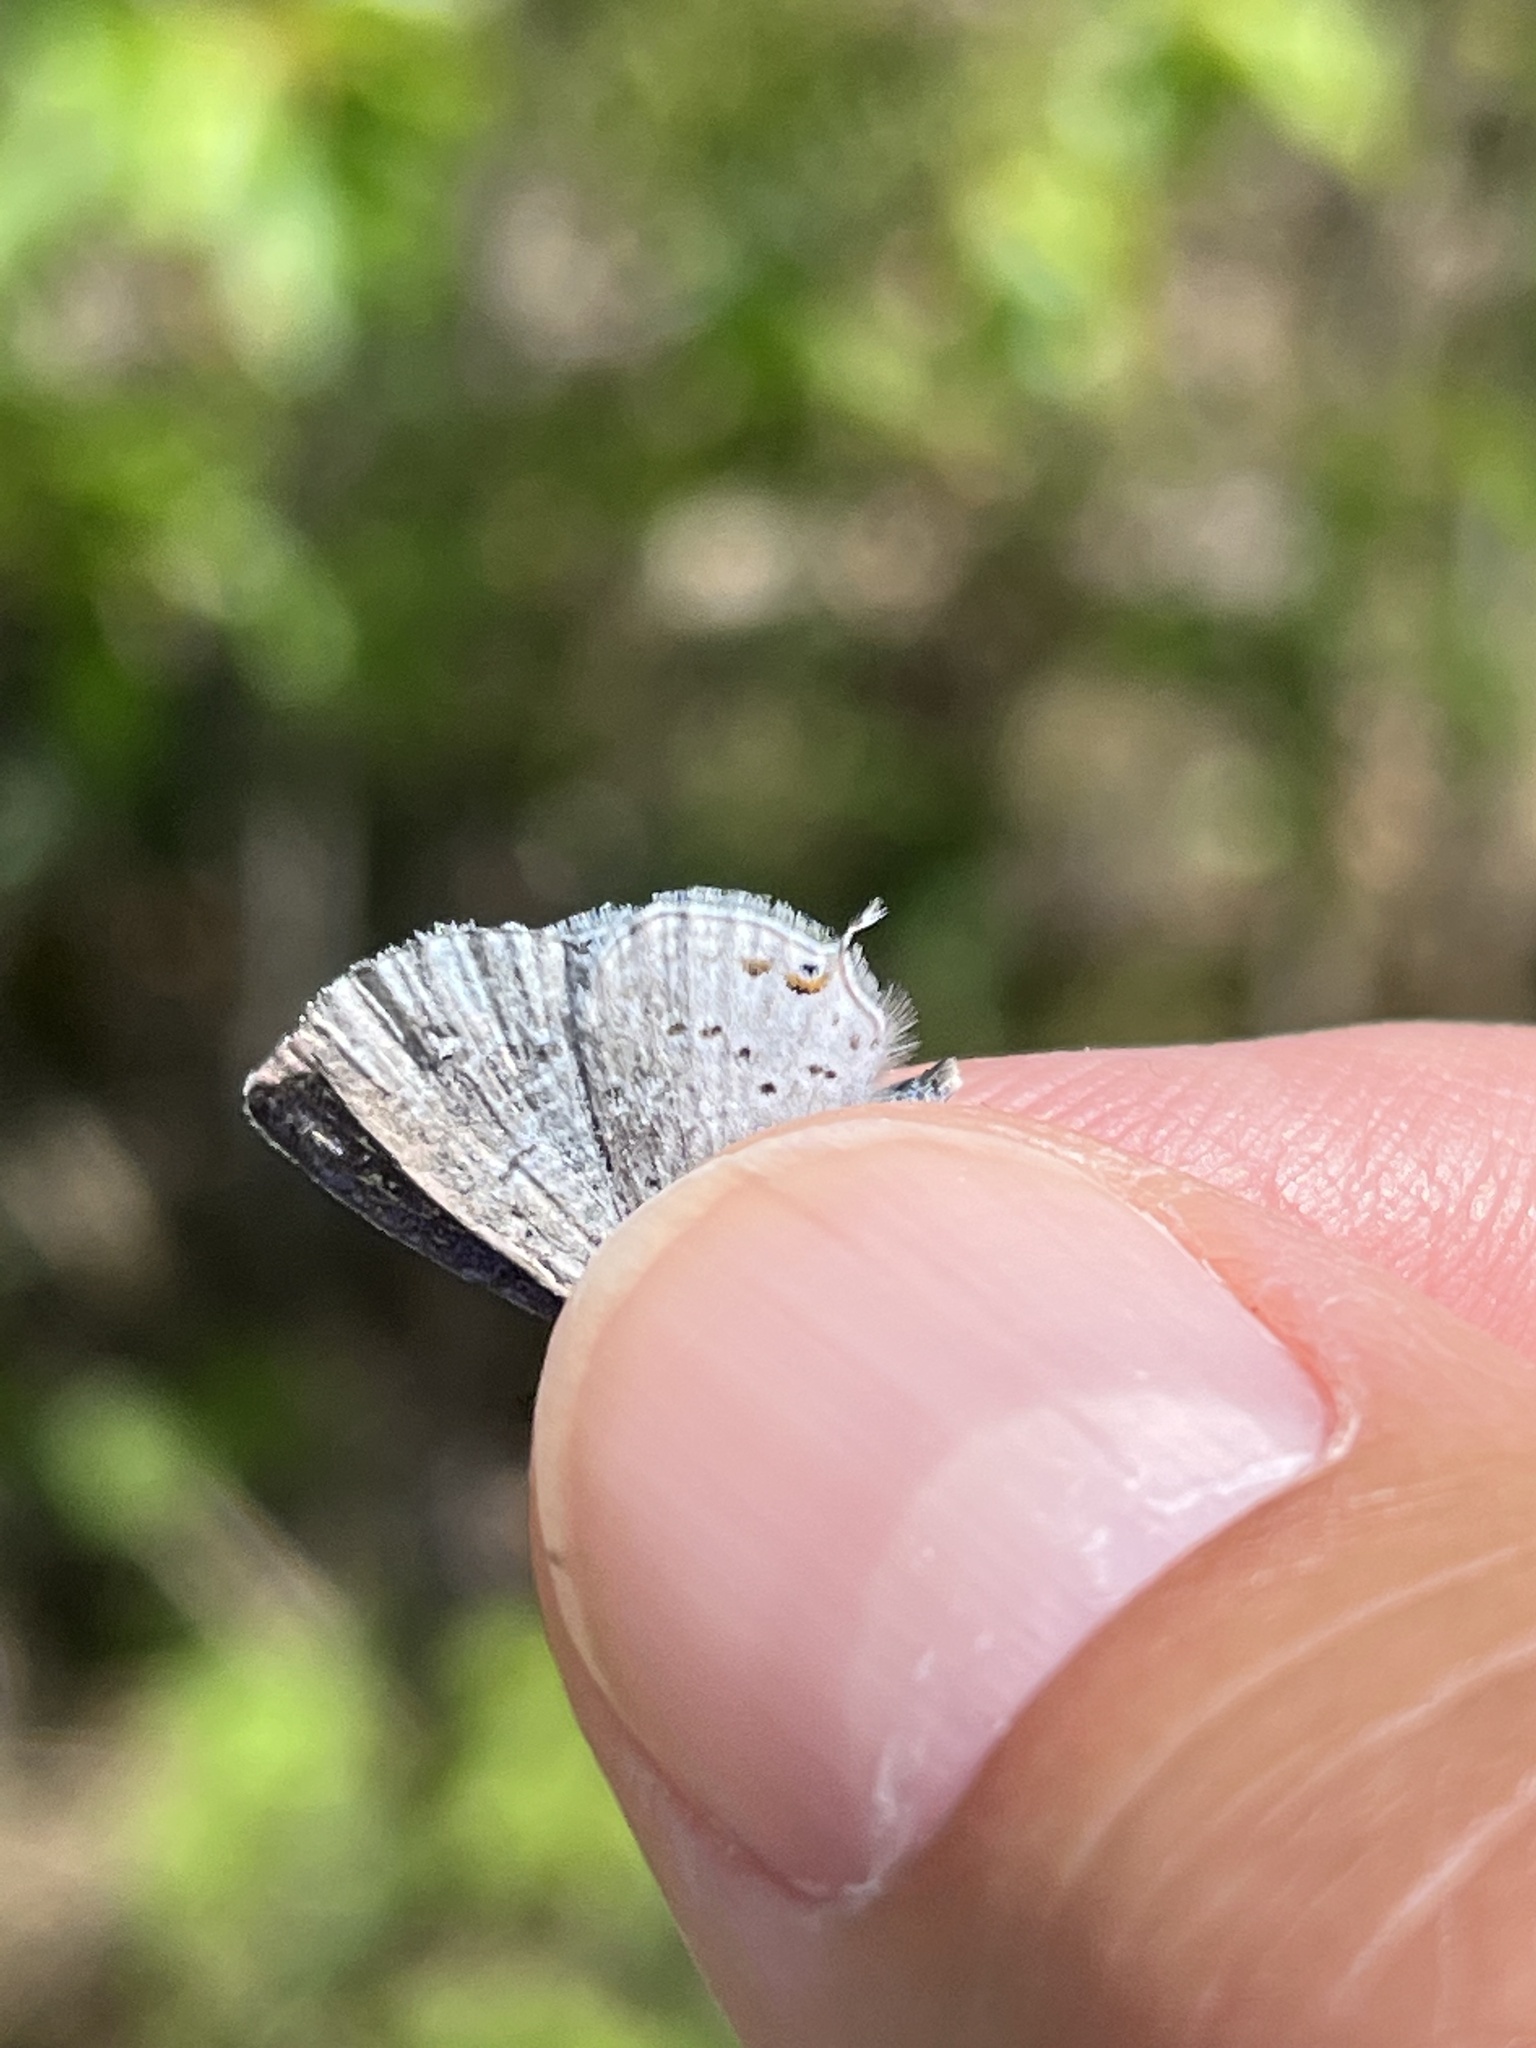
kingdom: Animalia
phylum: Arthropoda
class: Insecta
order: Lepidoptera
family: Lycaenidae
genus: Elkalyce
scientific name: Elkalyce amyntula
